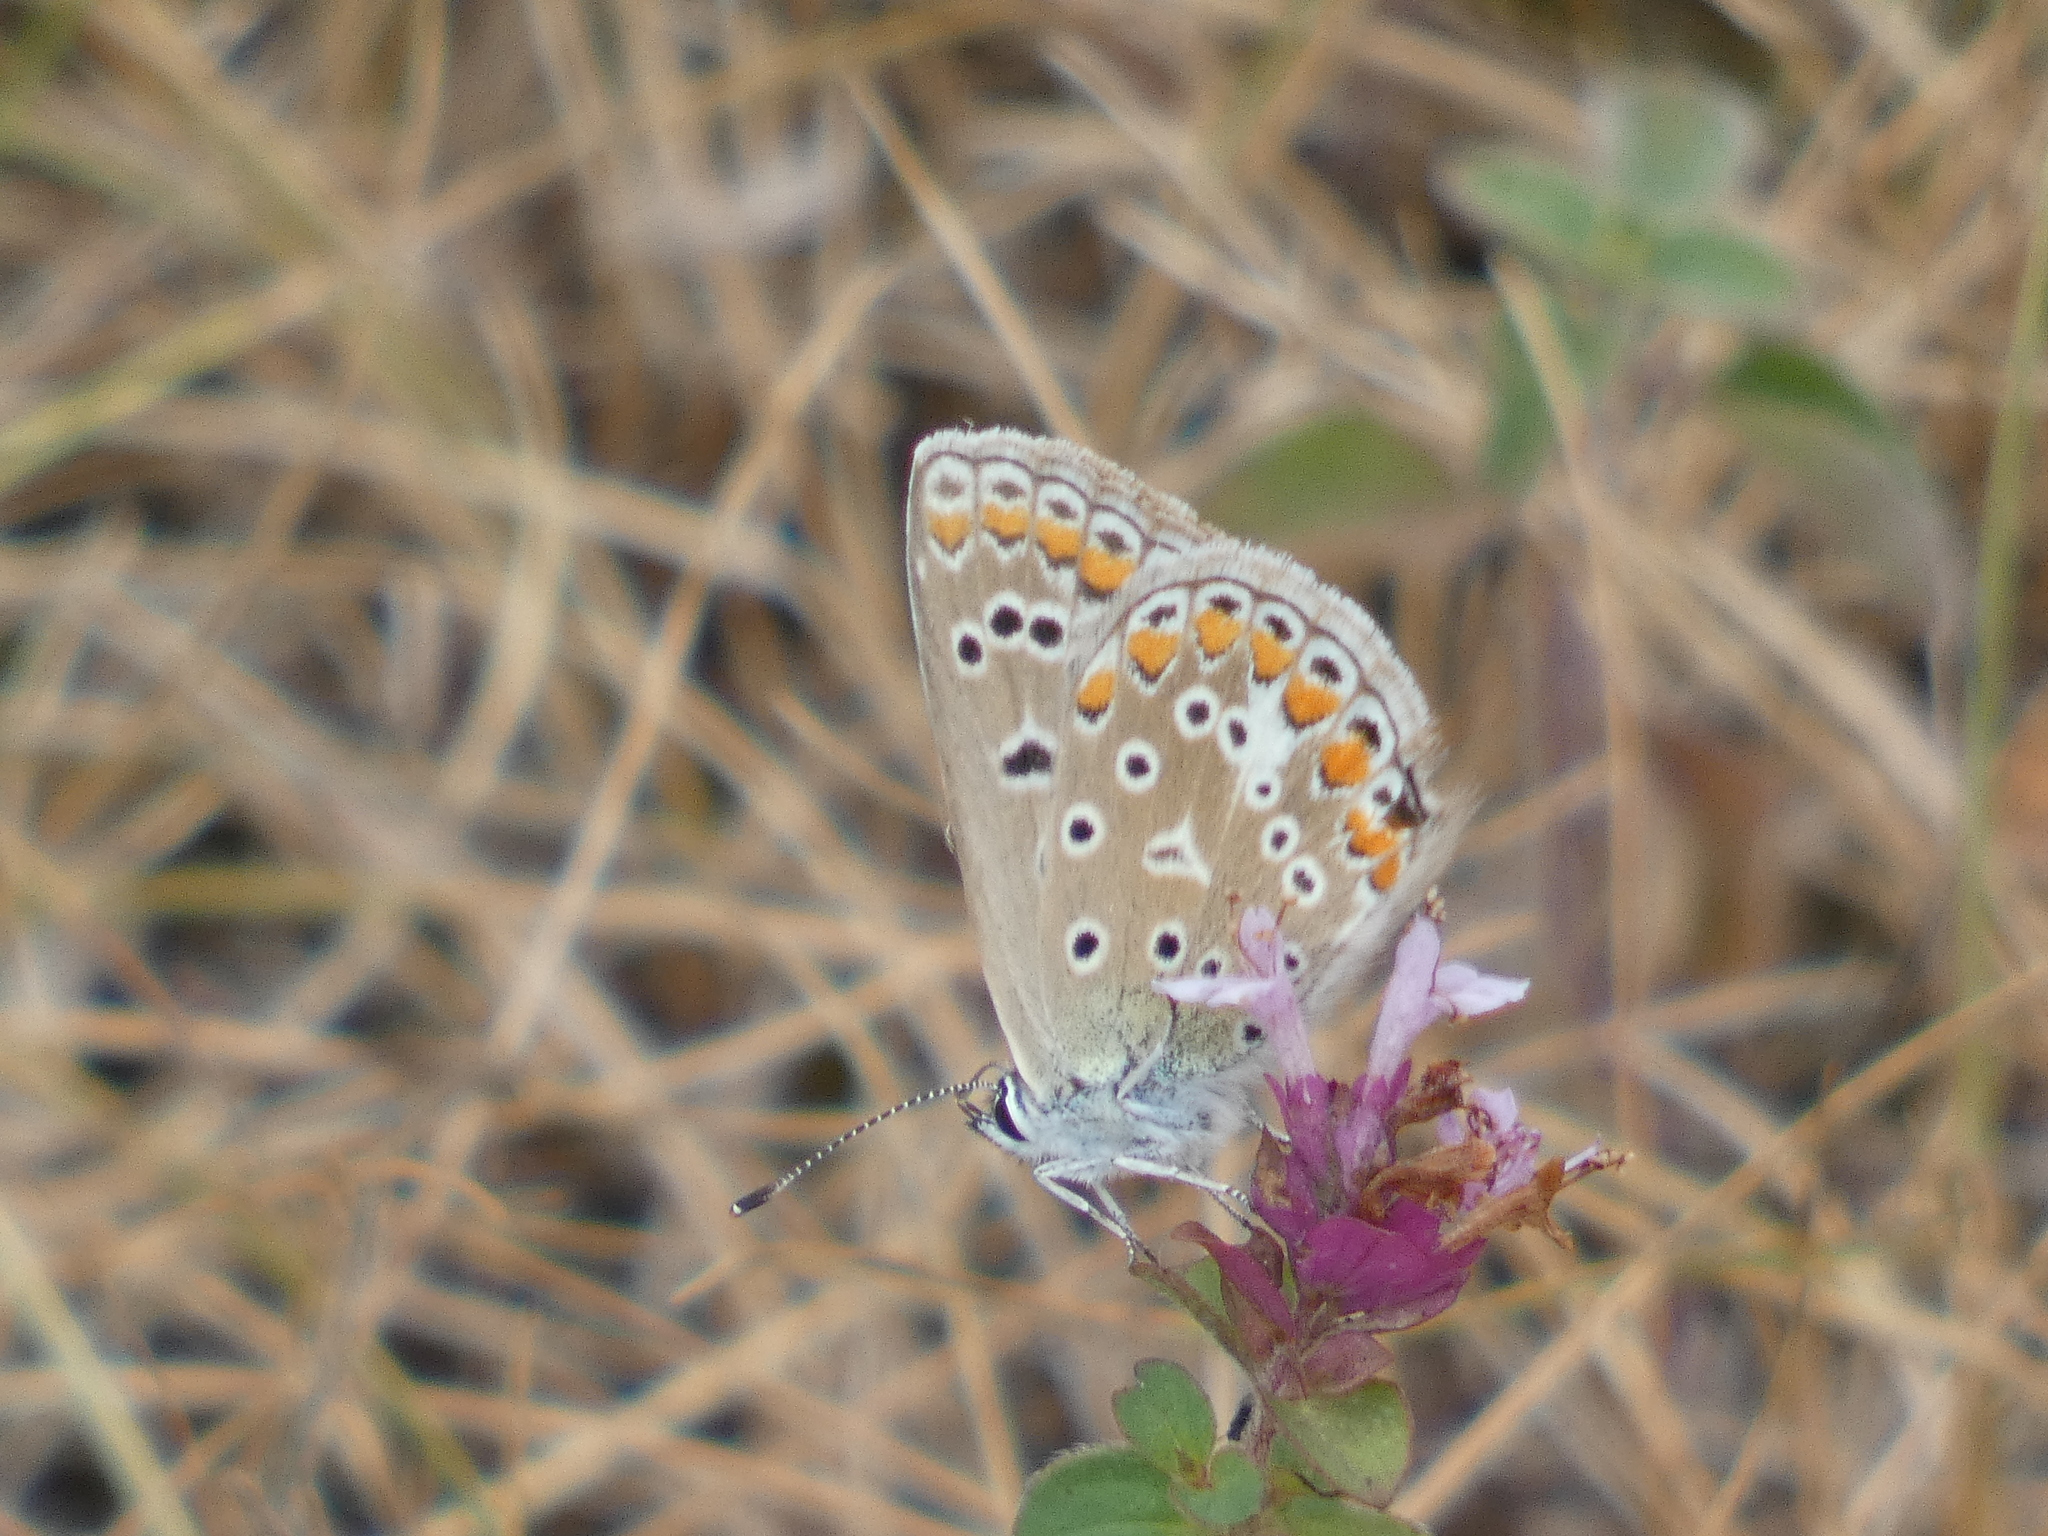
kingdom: Animalia
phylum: Arthropoda
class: Insecta
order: Lepidoptera
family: Lycaenidae
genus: Polyommatus
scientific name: Polyommatus icarus
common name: Common blue
